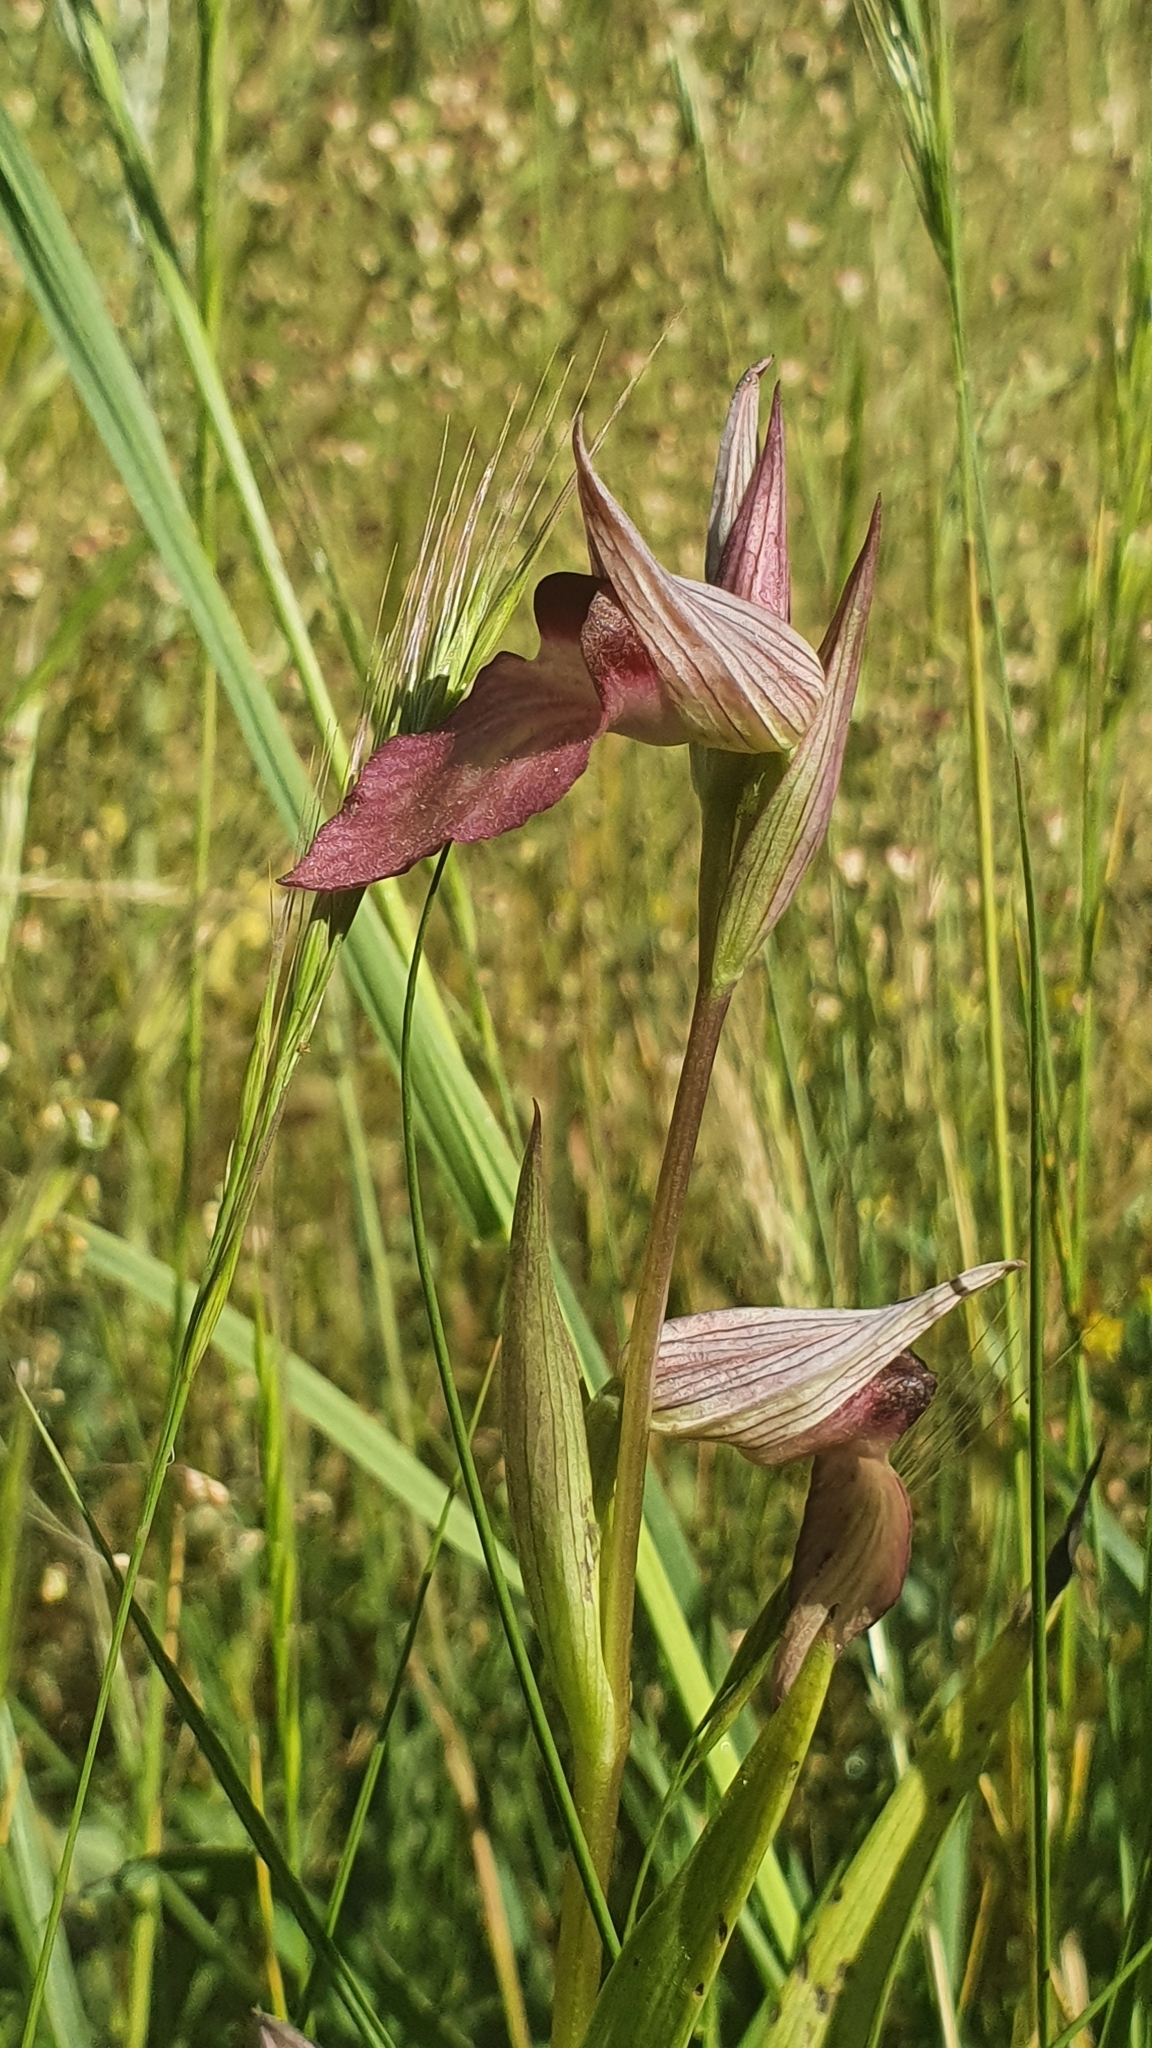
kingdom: Plantae
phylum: Tracheophyta
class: Liliopsida
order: Asparagales
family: Orchidaceae
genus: Serapias
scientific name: Serapias lingua
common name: Tongue-orchid
